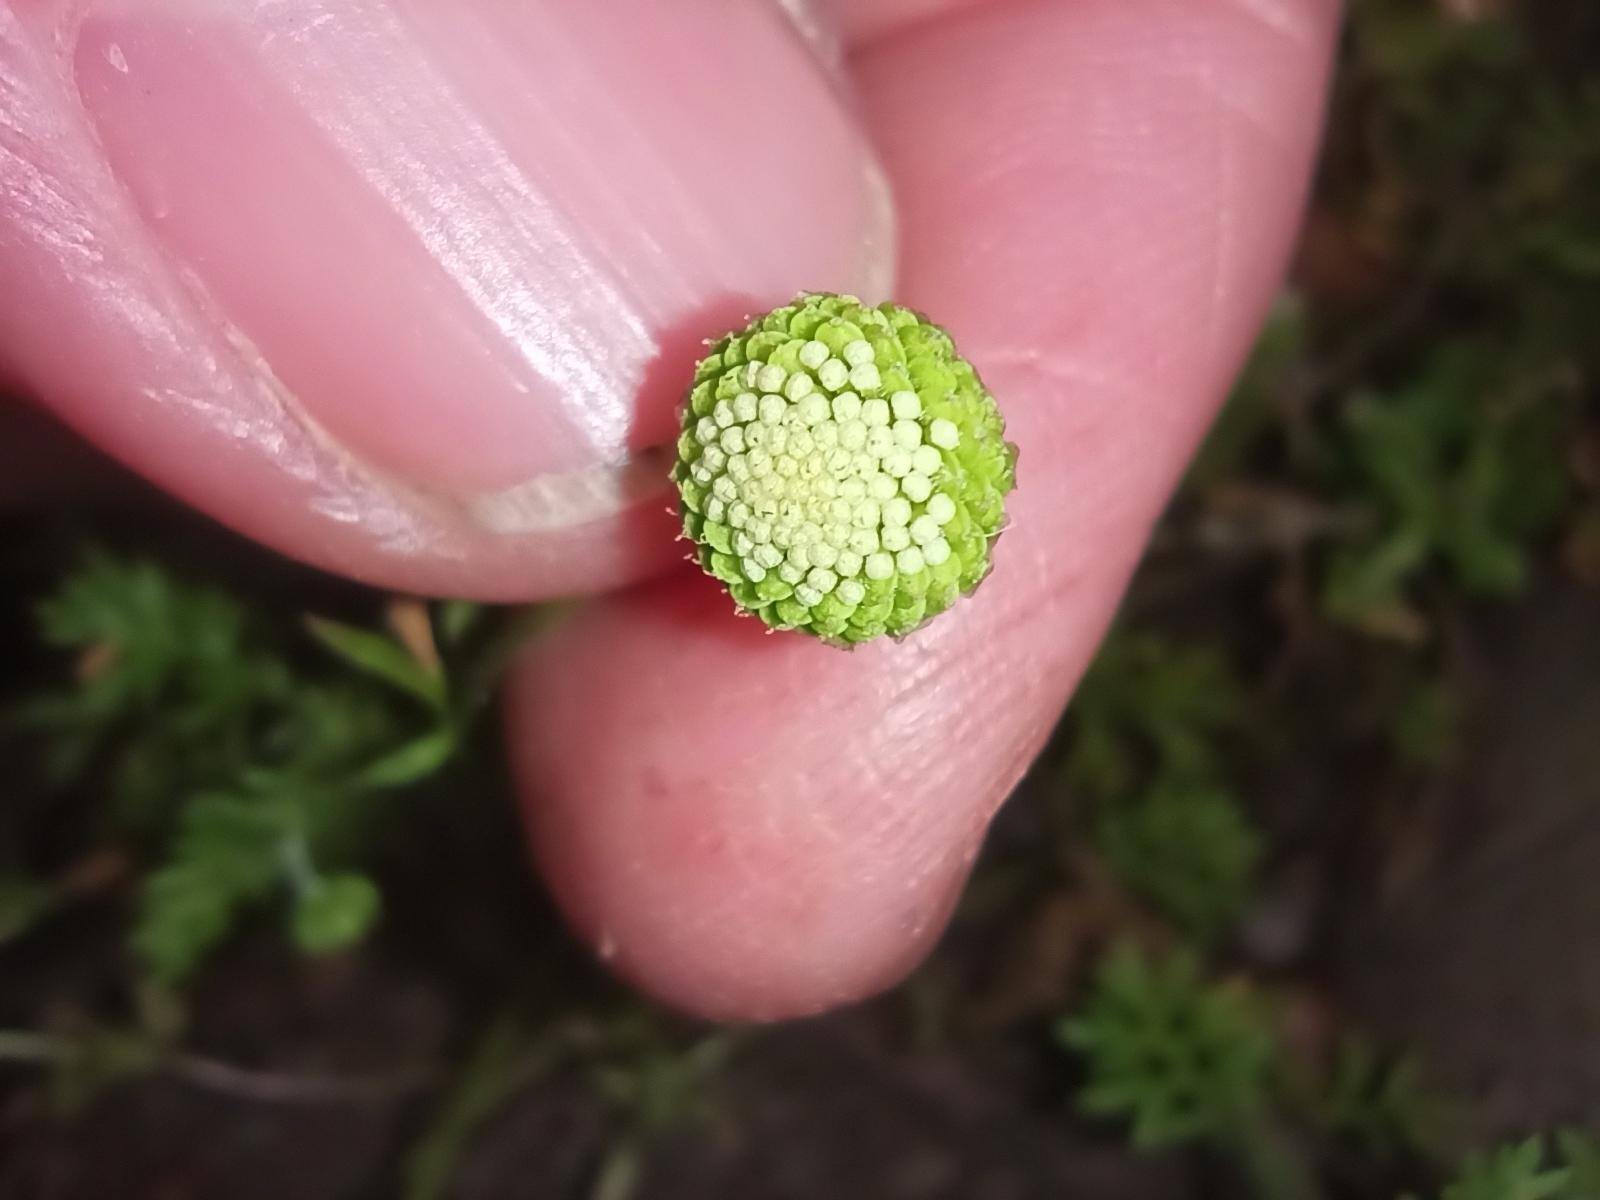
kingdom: Plantae
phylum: Tracheophyta
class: Magnoliopsida
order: Asterales
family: Asteraceae
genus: Cotula
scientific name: Cotula australis
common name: Australian waterbuttons
